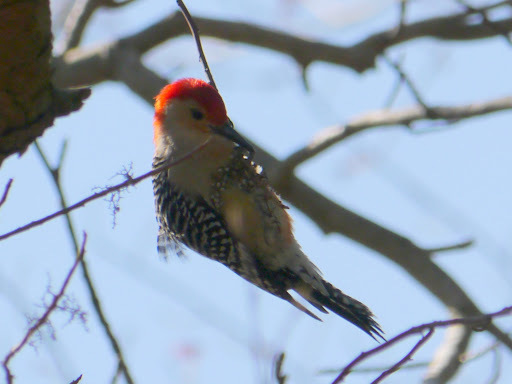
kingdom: Animalia
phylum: Chordata
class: Aves
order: Piciformes
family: Picidae
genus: Melanerpes
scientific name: Melanerpes carolinus
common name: Red-bellied woodpecker
